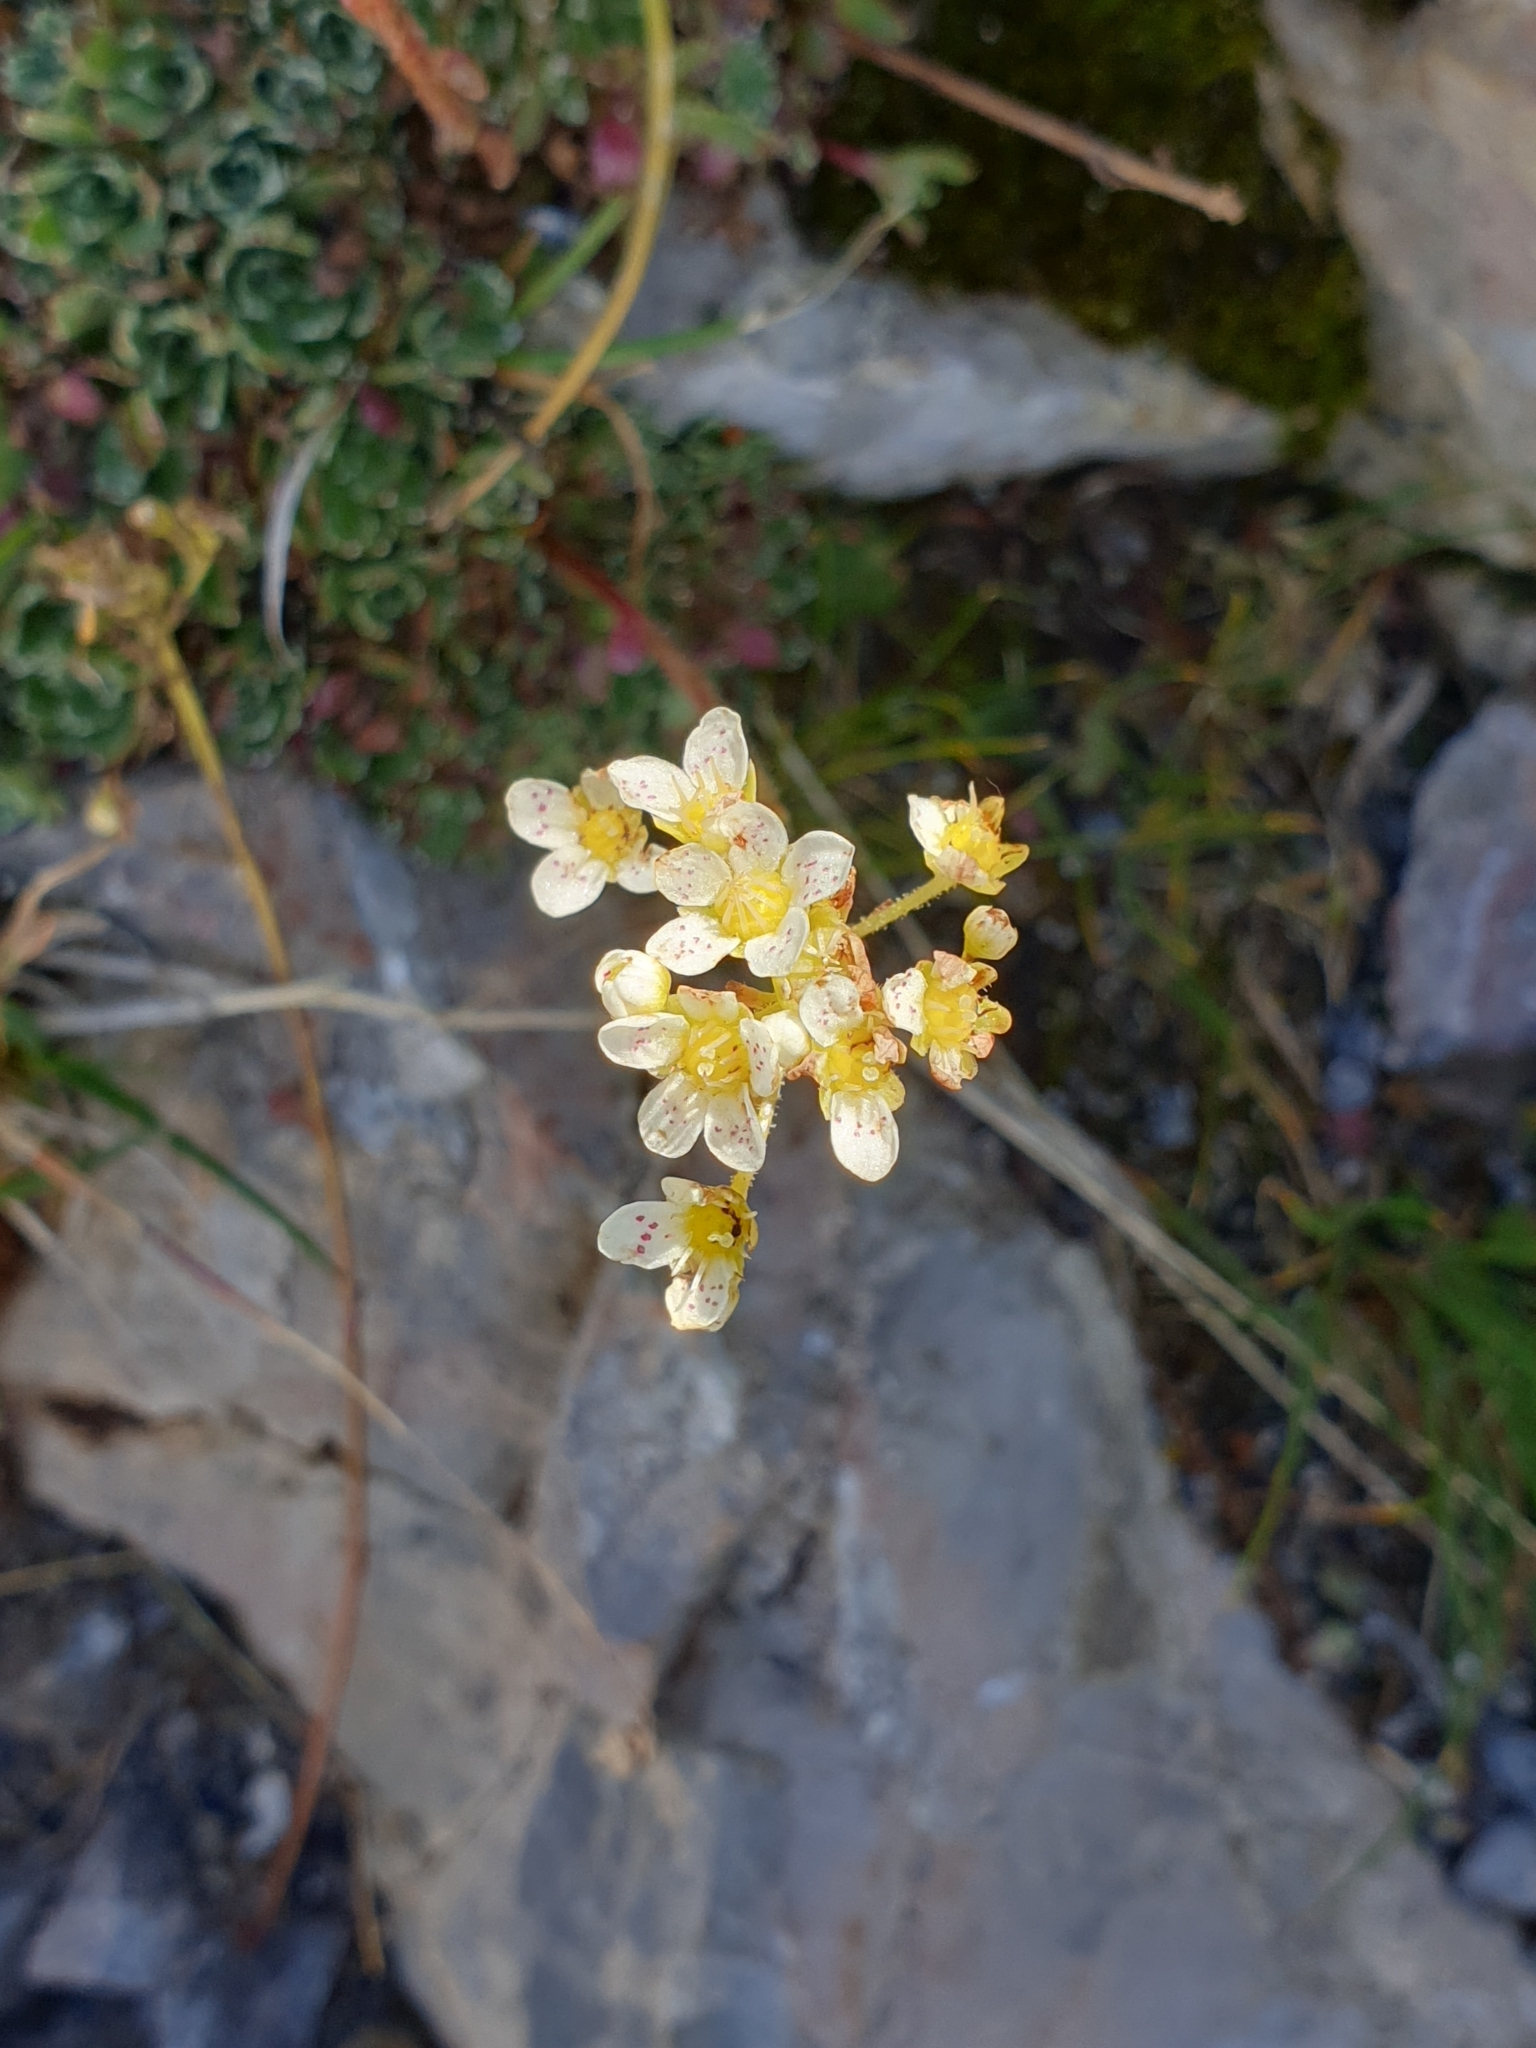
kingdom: Plantae
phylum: Tracheophyta
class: Magnoliopsida
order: Saxifragales
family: Saxifragaceae
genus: Saxifraga
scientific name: Saxifraga paniculata
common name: Livelong saxifrage
